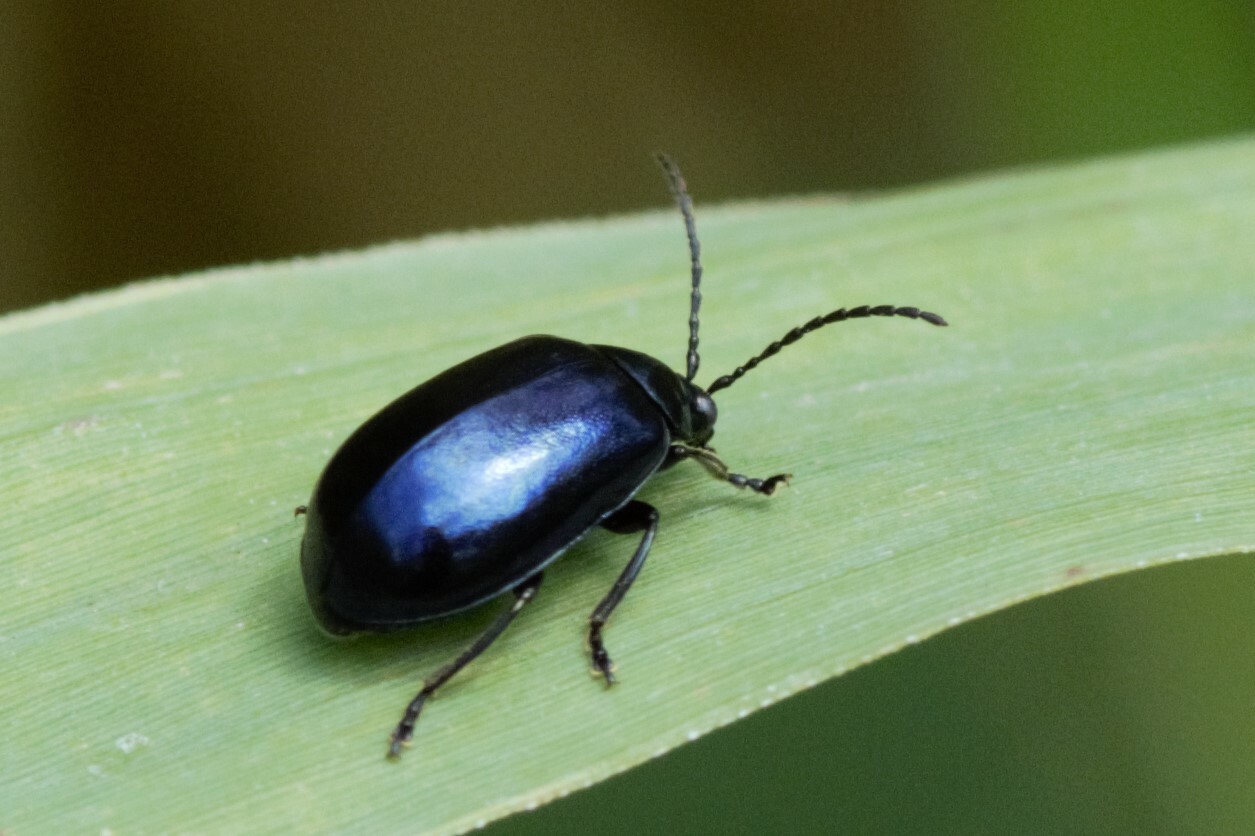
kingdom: Animalia
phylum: Arthropoda
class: Insecta
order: Coleoptera
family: Chrysomelidae
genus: Agelastica
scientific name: Agelastica alni
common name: Alder leaf beetle
